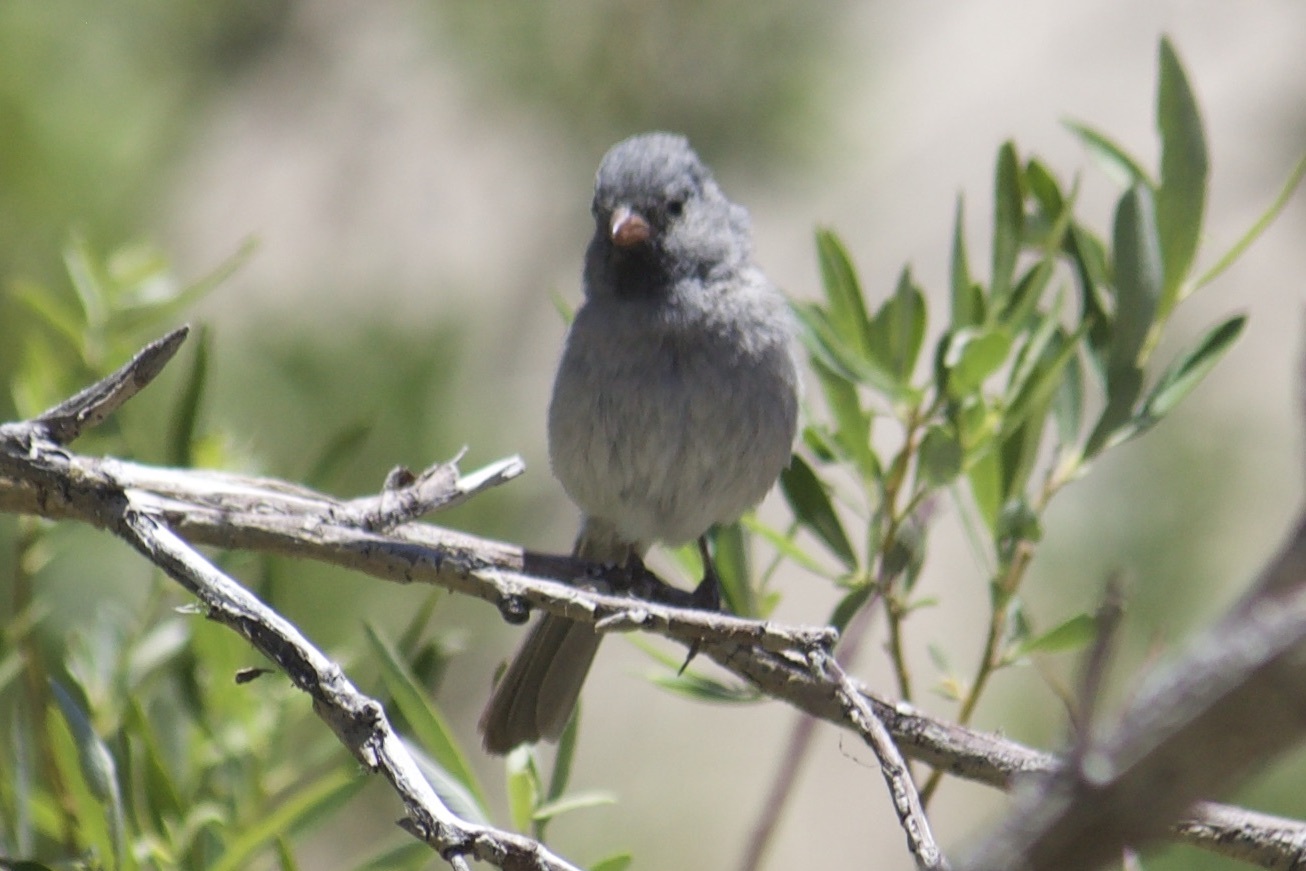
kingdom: Animalia
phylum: Chordata
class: Aves
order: Passeriformes
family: Passerellidae
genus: Spizella
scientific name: Spizella atrogularis
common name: Black-chinned sparrow
